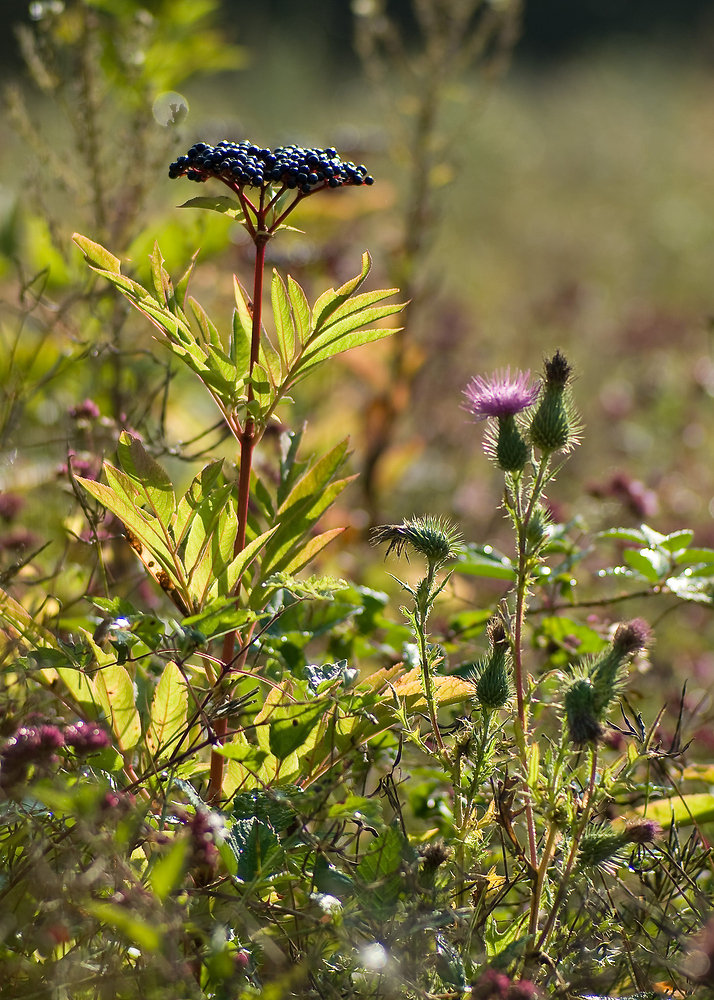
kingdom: Plantae
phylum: Tracheophyta
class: Magnoliopsida
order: Dipsacales
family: Viburnaceae
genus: Sambucus
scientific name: Sambucus ebulus
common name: Dwarf elder
